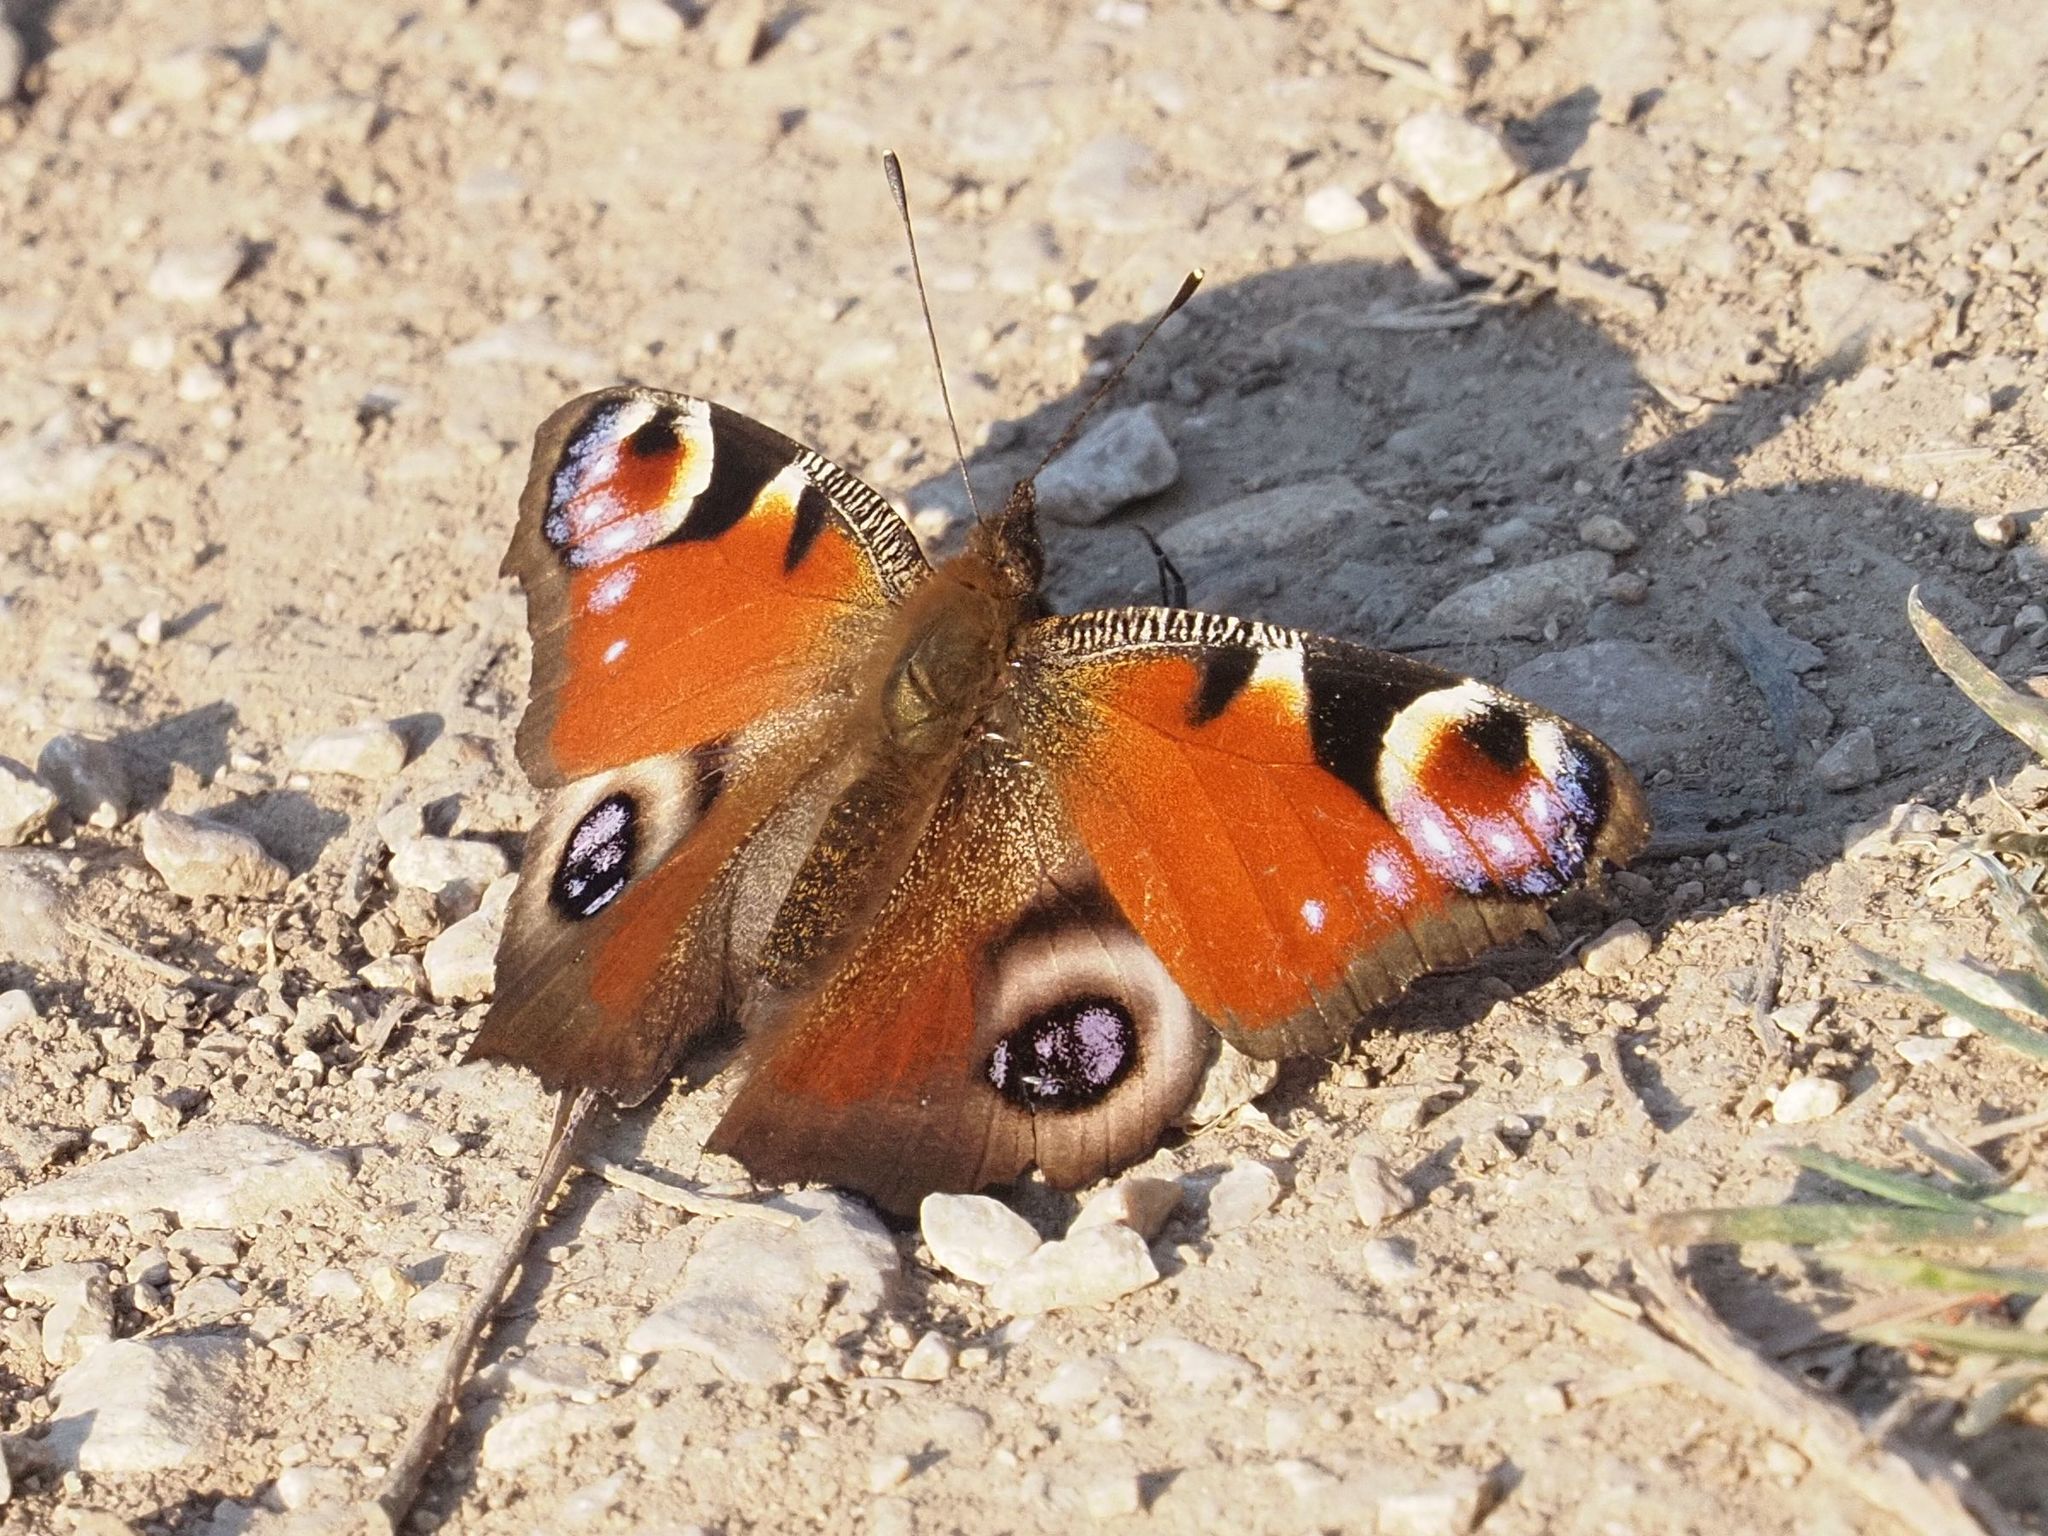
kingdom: Animalia
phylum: Arthropoda
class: Insecta
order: Lepidoptera
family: Nymphalidae
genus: Aglais
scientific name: Aglais io
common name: Peacock
